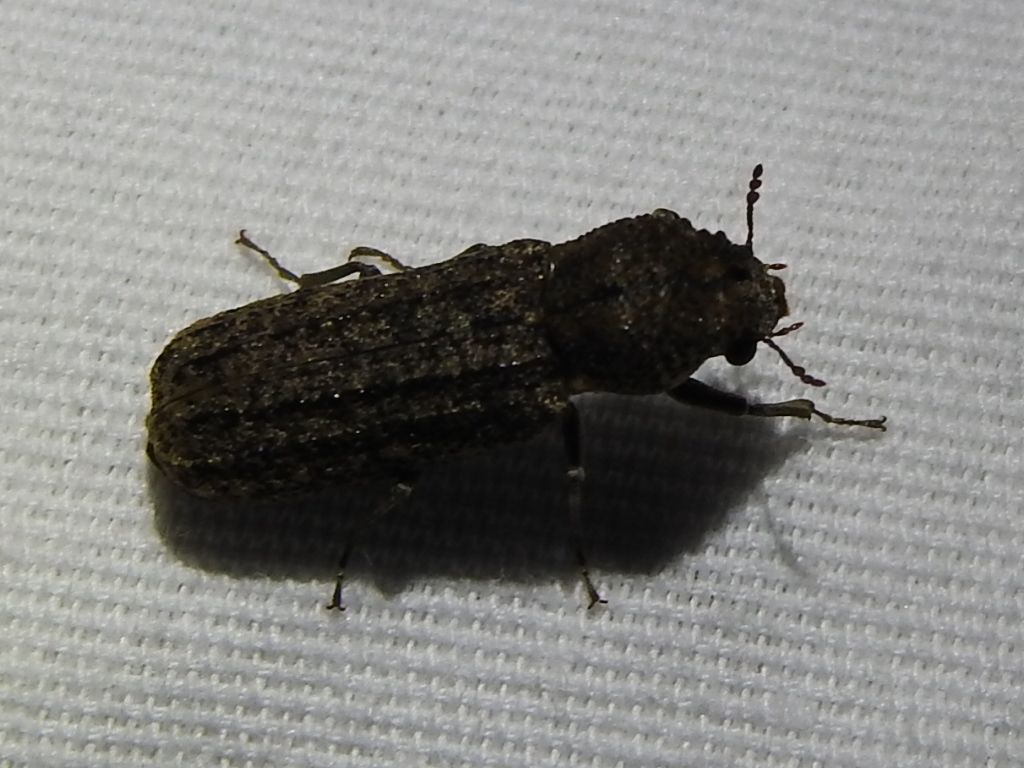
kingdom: Animalia
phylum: Arthropoda
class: Insecta
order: Coleoptera
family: Bostrichidae
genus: Lichenophanes
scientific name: Lichenophanes bicornis
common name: Two-horned powder-post beetle
